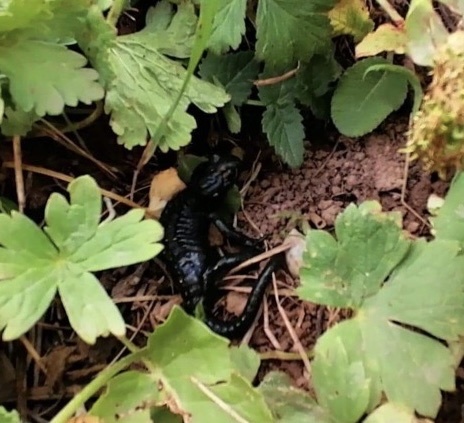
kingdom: Animalia
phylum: Chordata
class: Amphibia
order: Caudata
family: Salamandridae
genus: Salamandra
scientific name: Salamandra atra
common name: Alpine salamander
